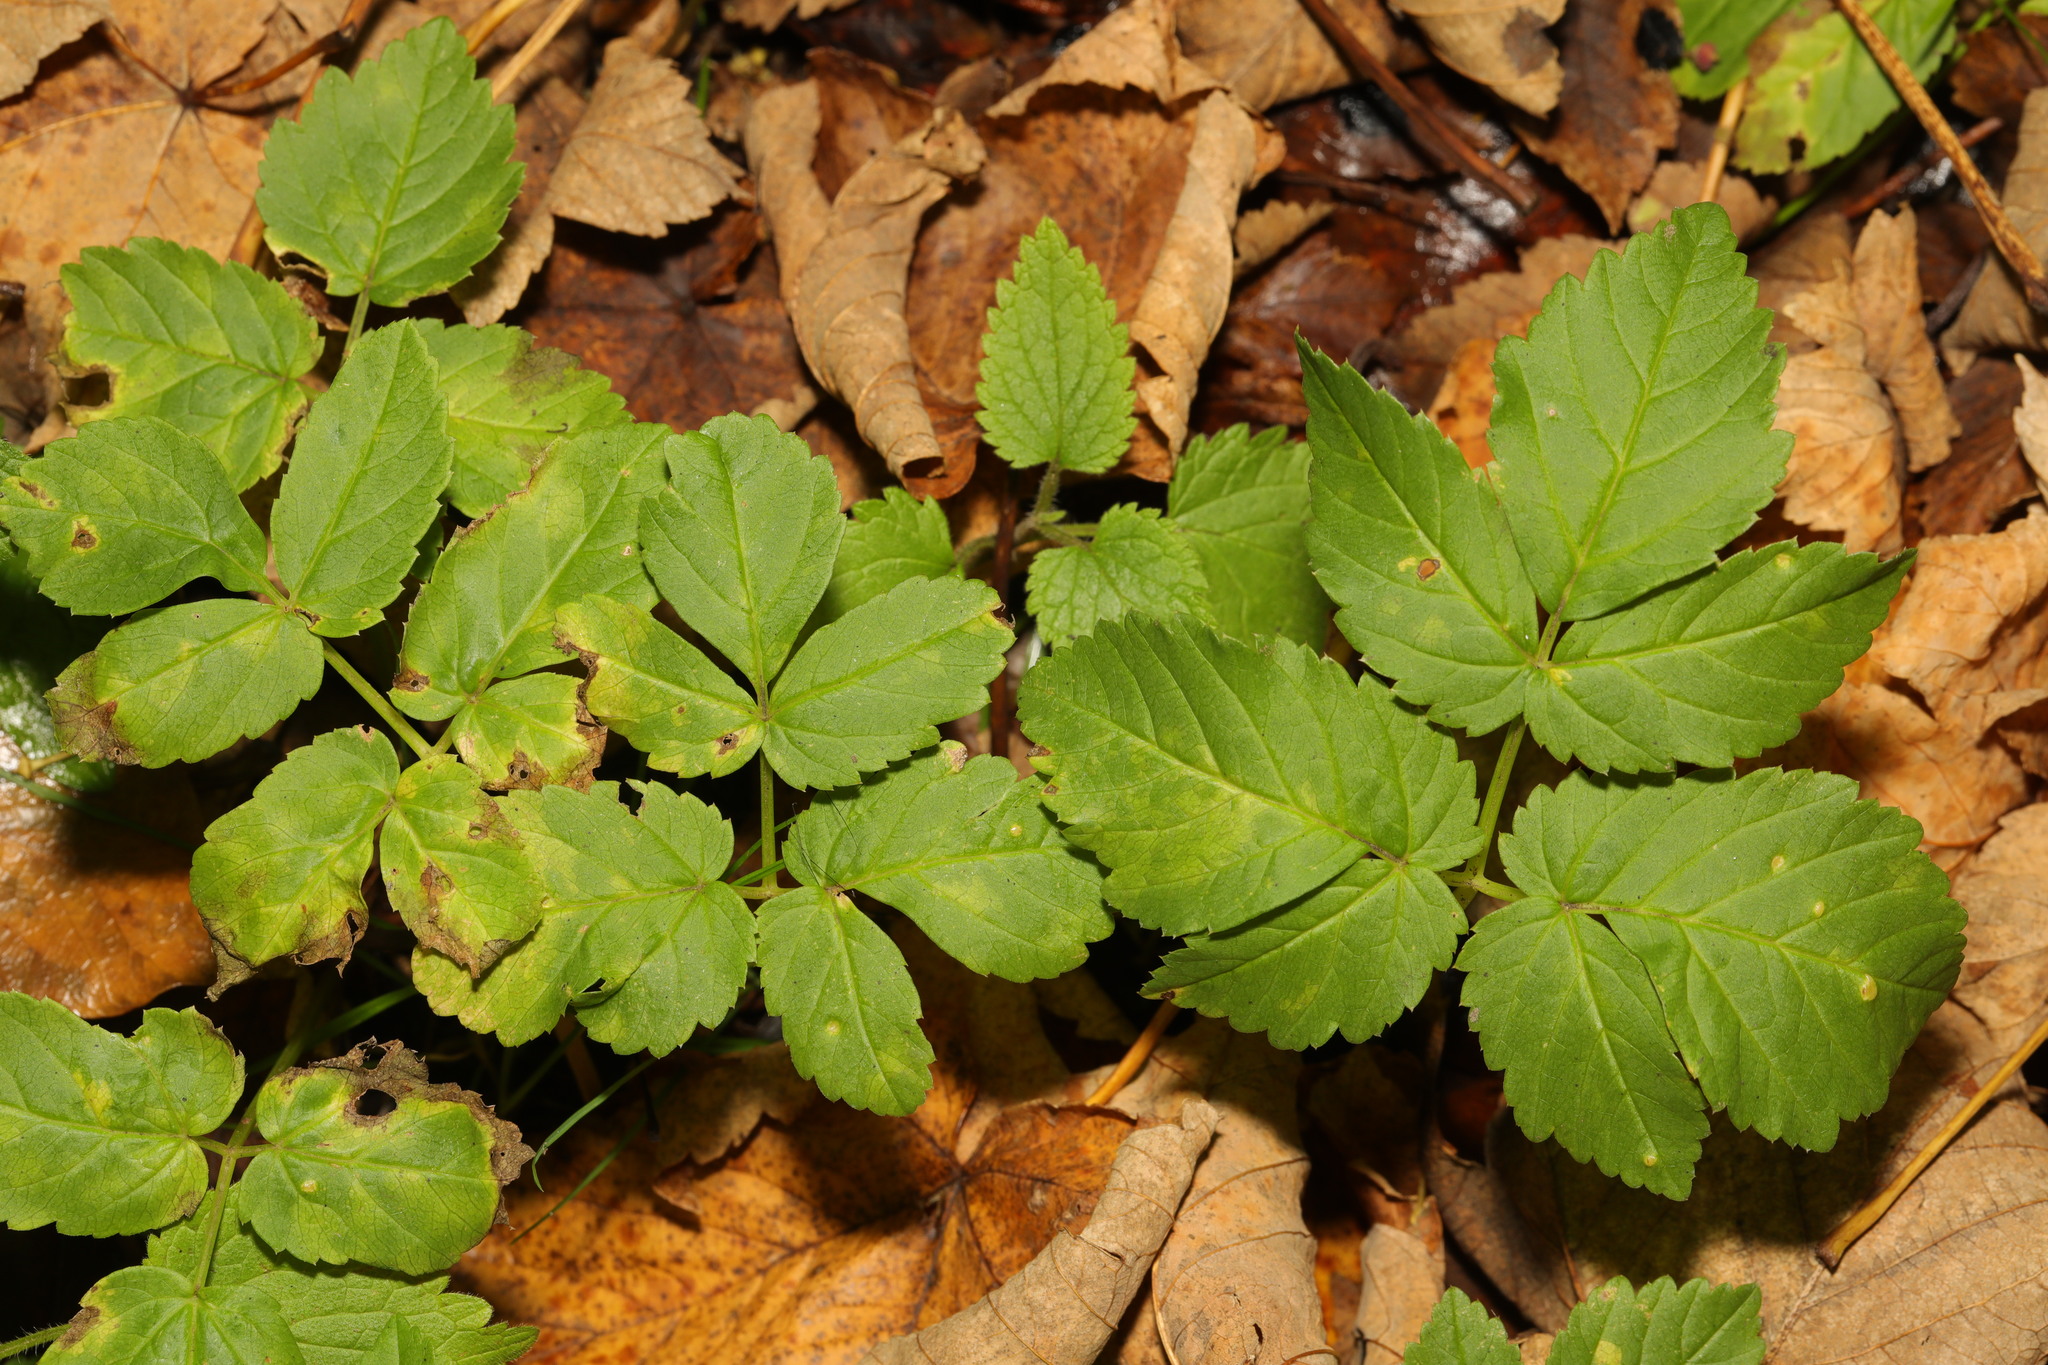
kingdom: Plantae
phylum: Tracheophyta
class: Magnoliopsida
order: Apiales
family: Apiaceae
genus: Aegopodium
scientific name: Aegopodium podagraria
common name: Ground-elder
